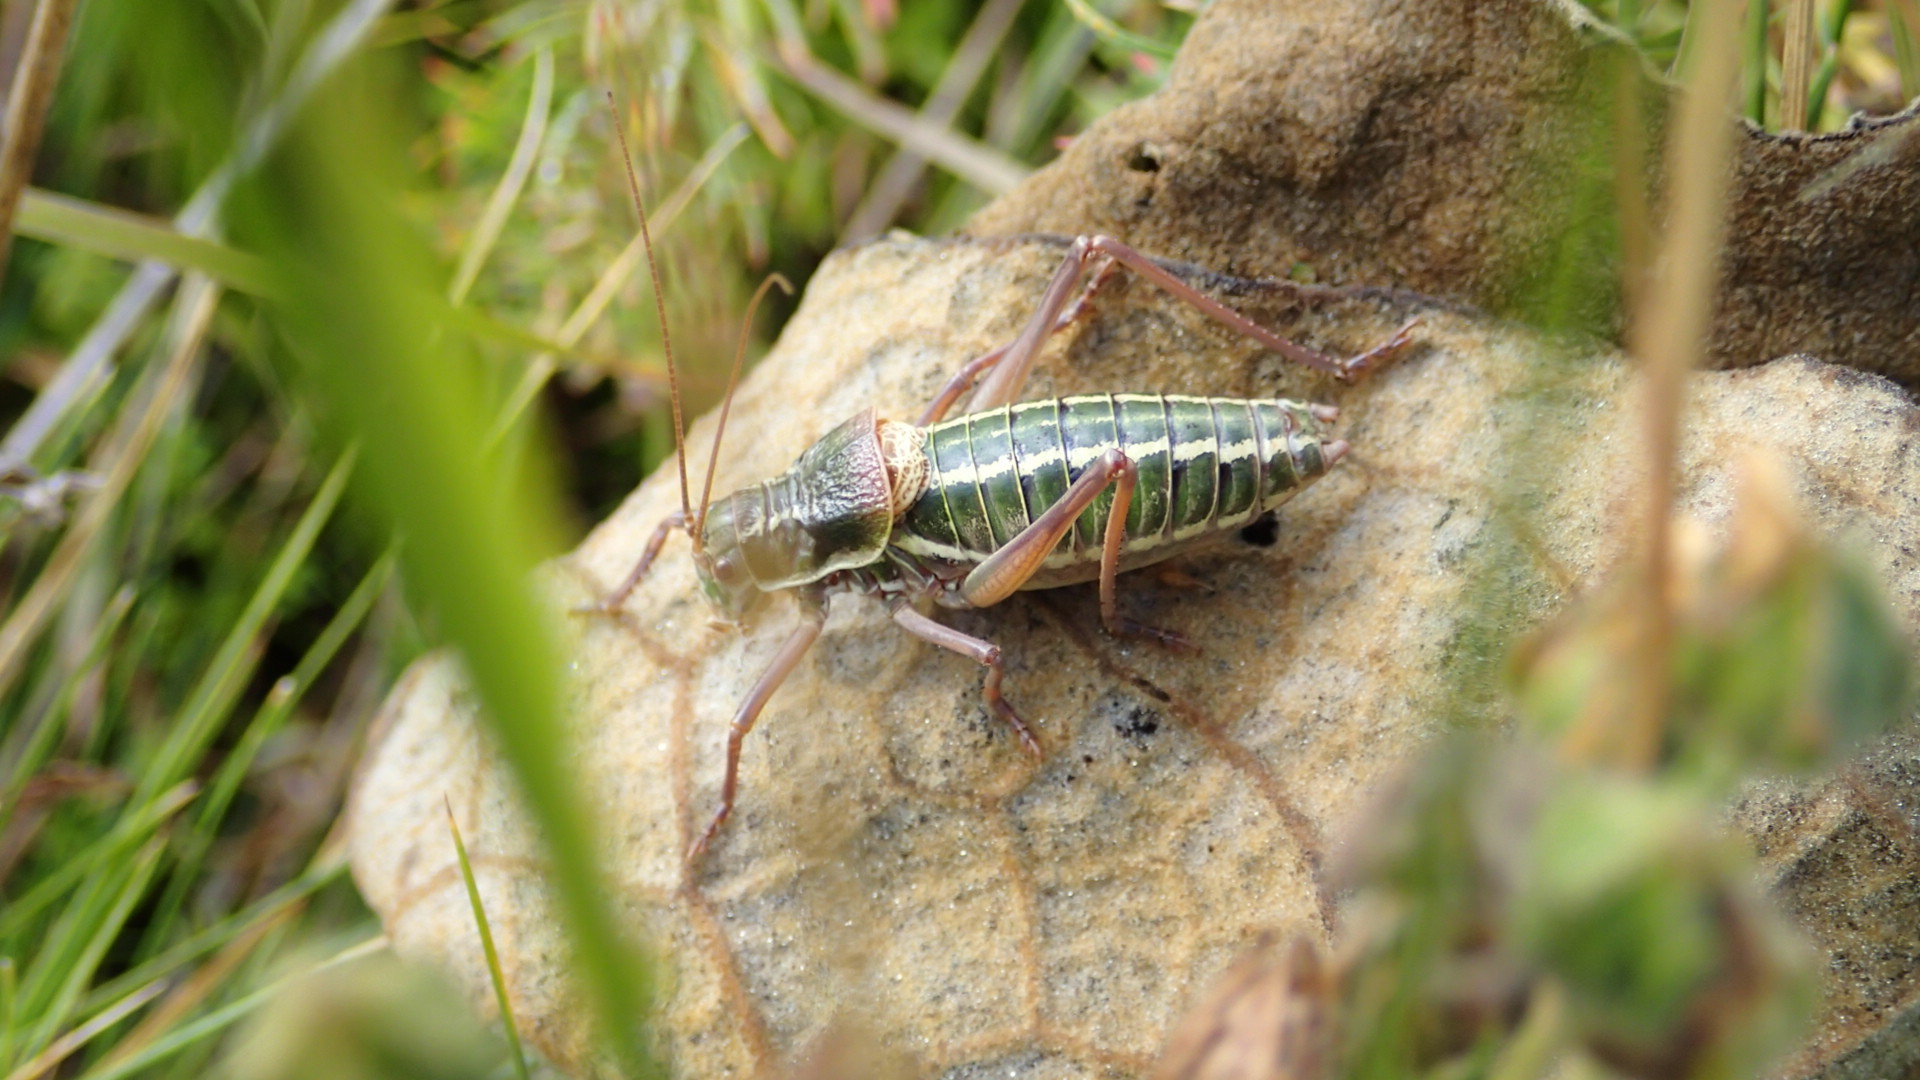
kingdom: Animalia
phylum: Arthropoda
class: Insecta
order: Orthoptera
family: Tettigoniidae
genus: Ephippiger
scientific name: Ephippiger ruffoi
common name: Pygmy saddle bush-cricket
